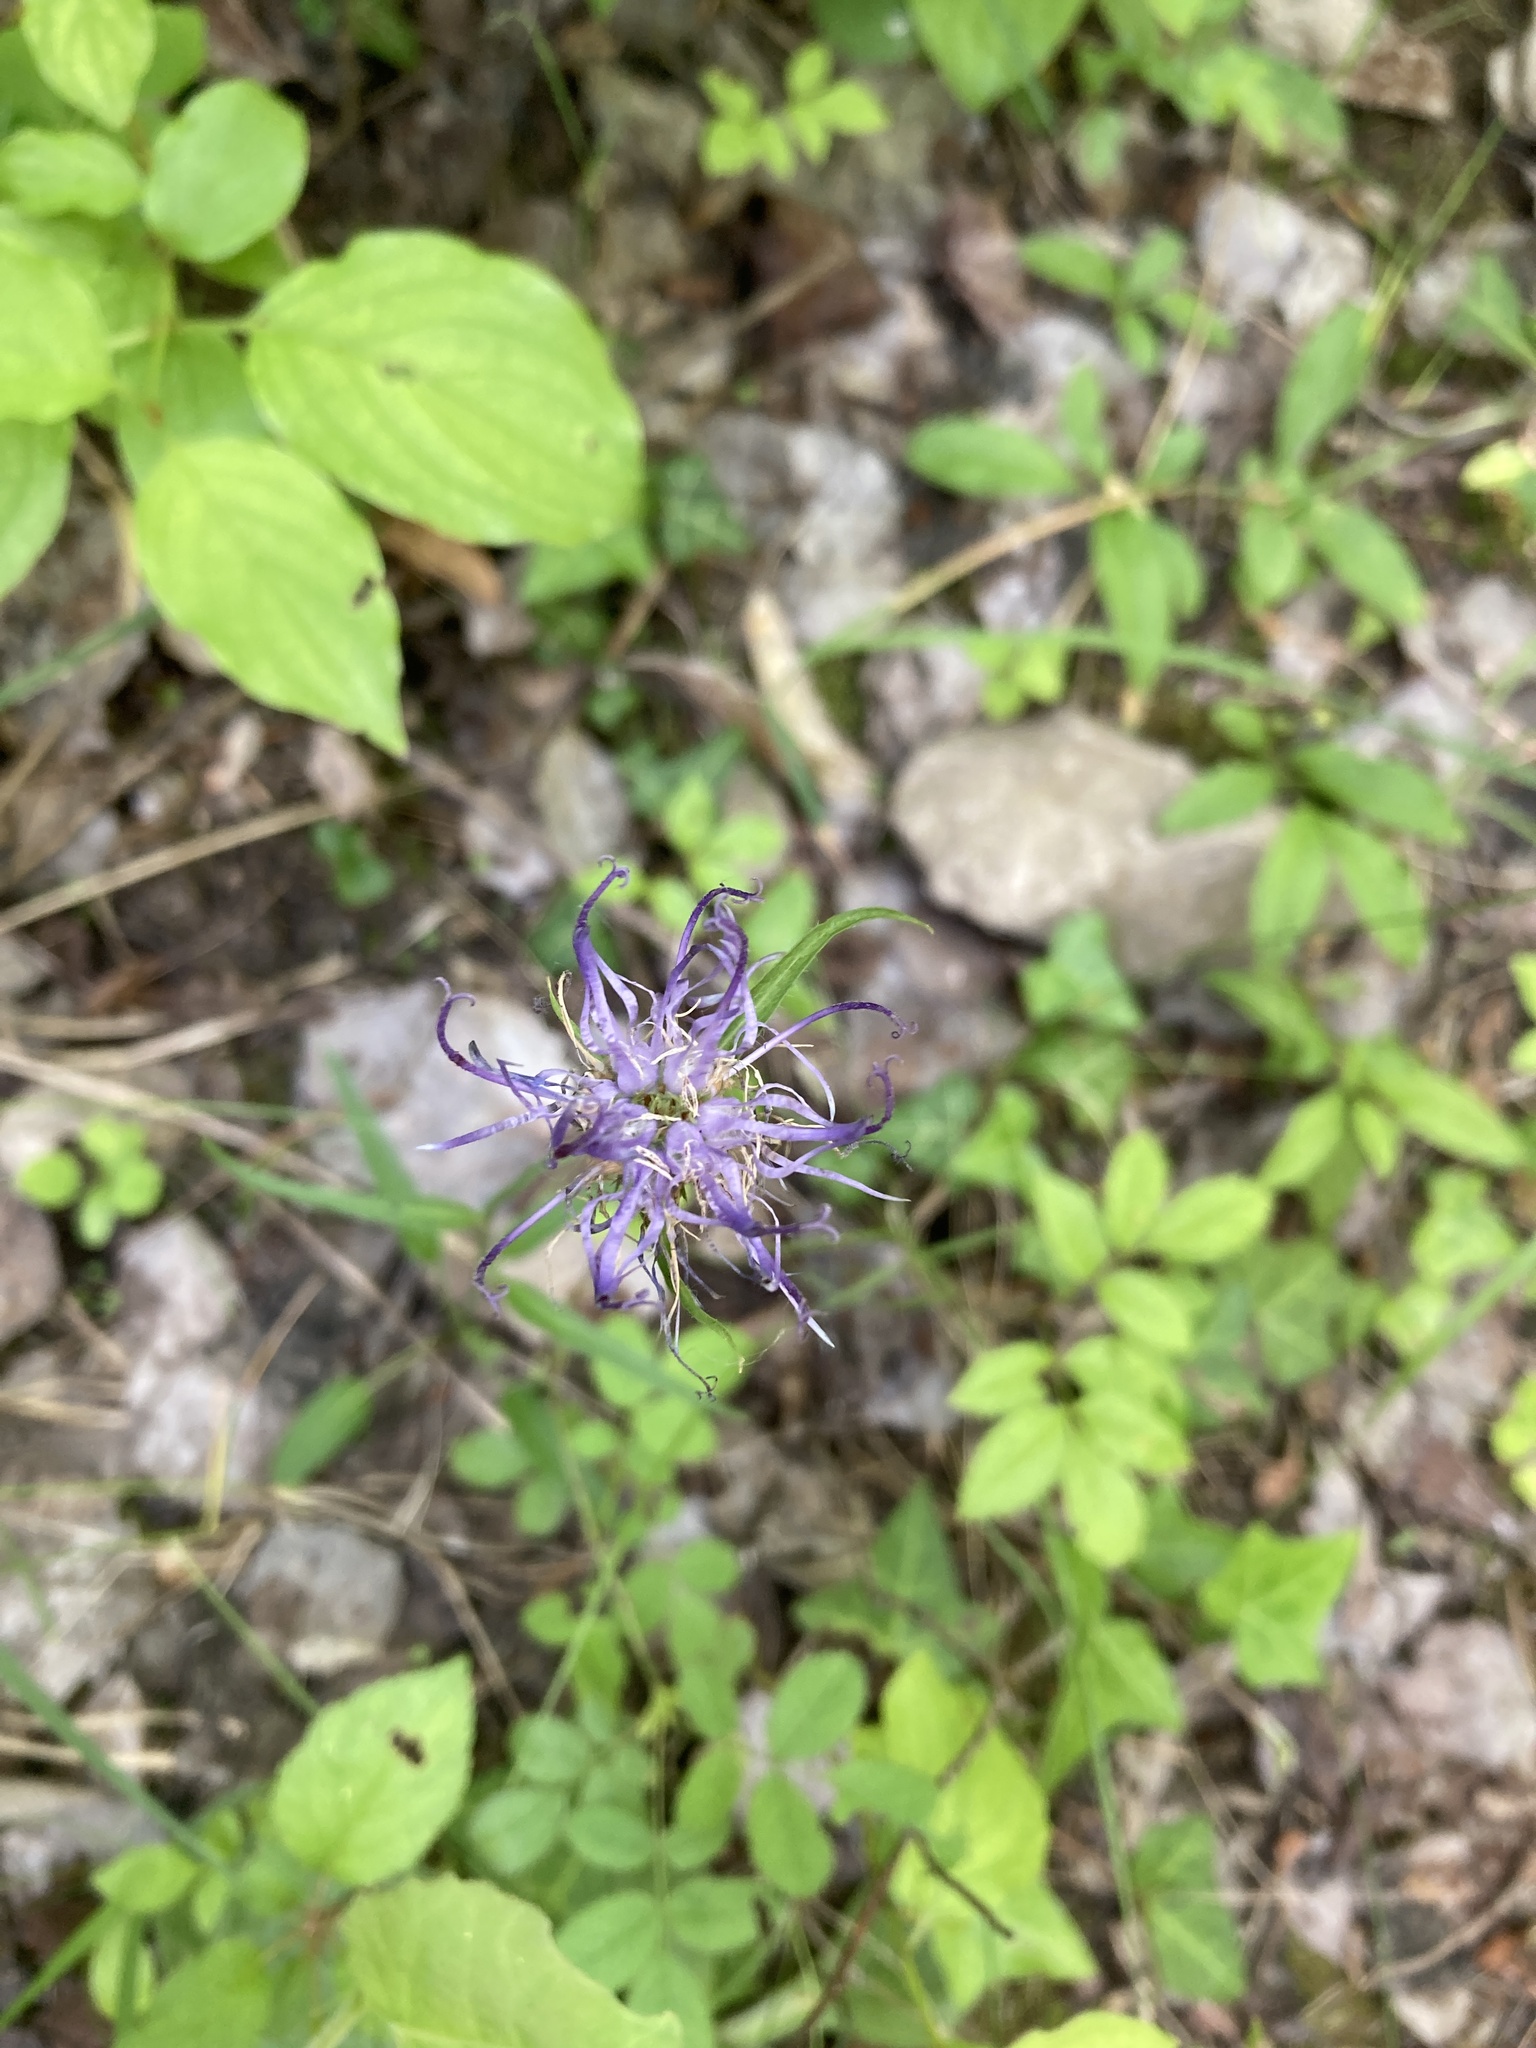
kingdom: Plantae
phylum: Tracheophyta
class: Magnoliopsida
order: Asterales
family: Campanulaceae
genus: Phyteuma
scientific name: Phyteuma orbiculare
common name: Round-headed rampion
